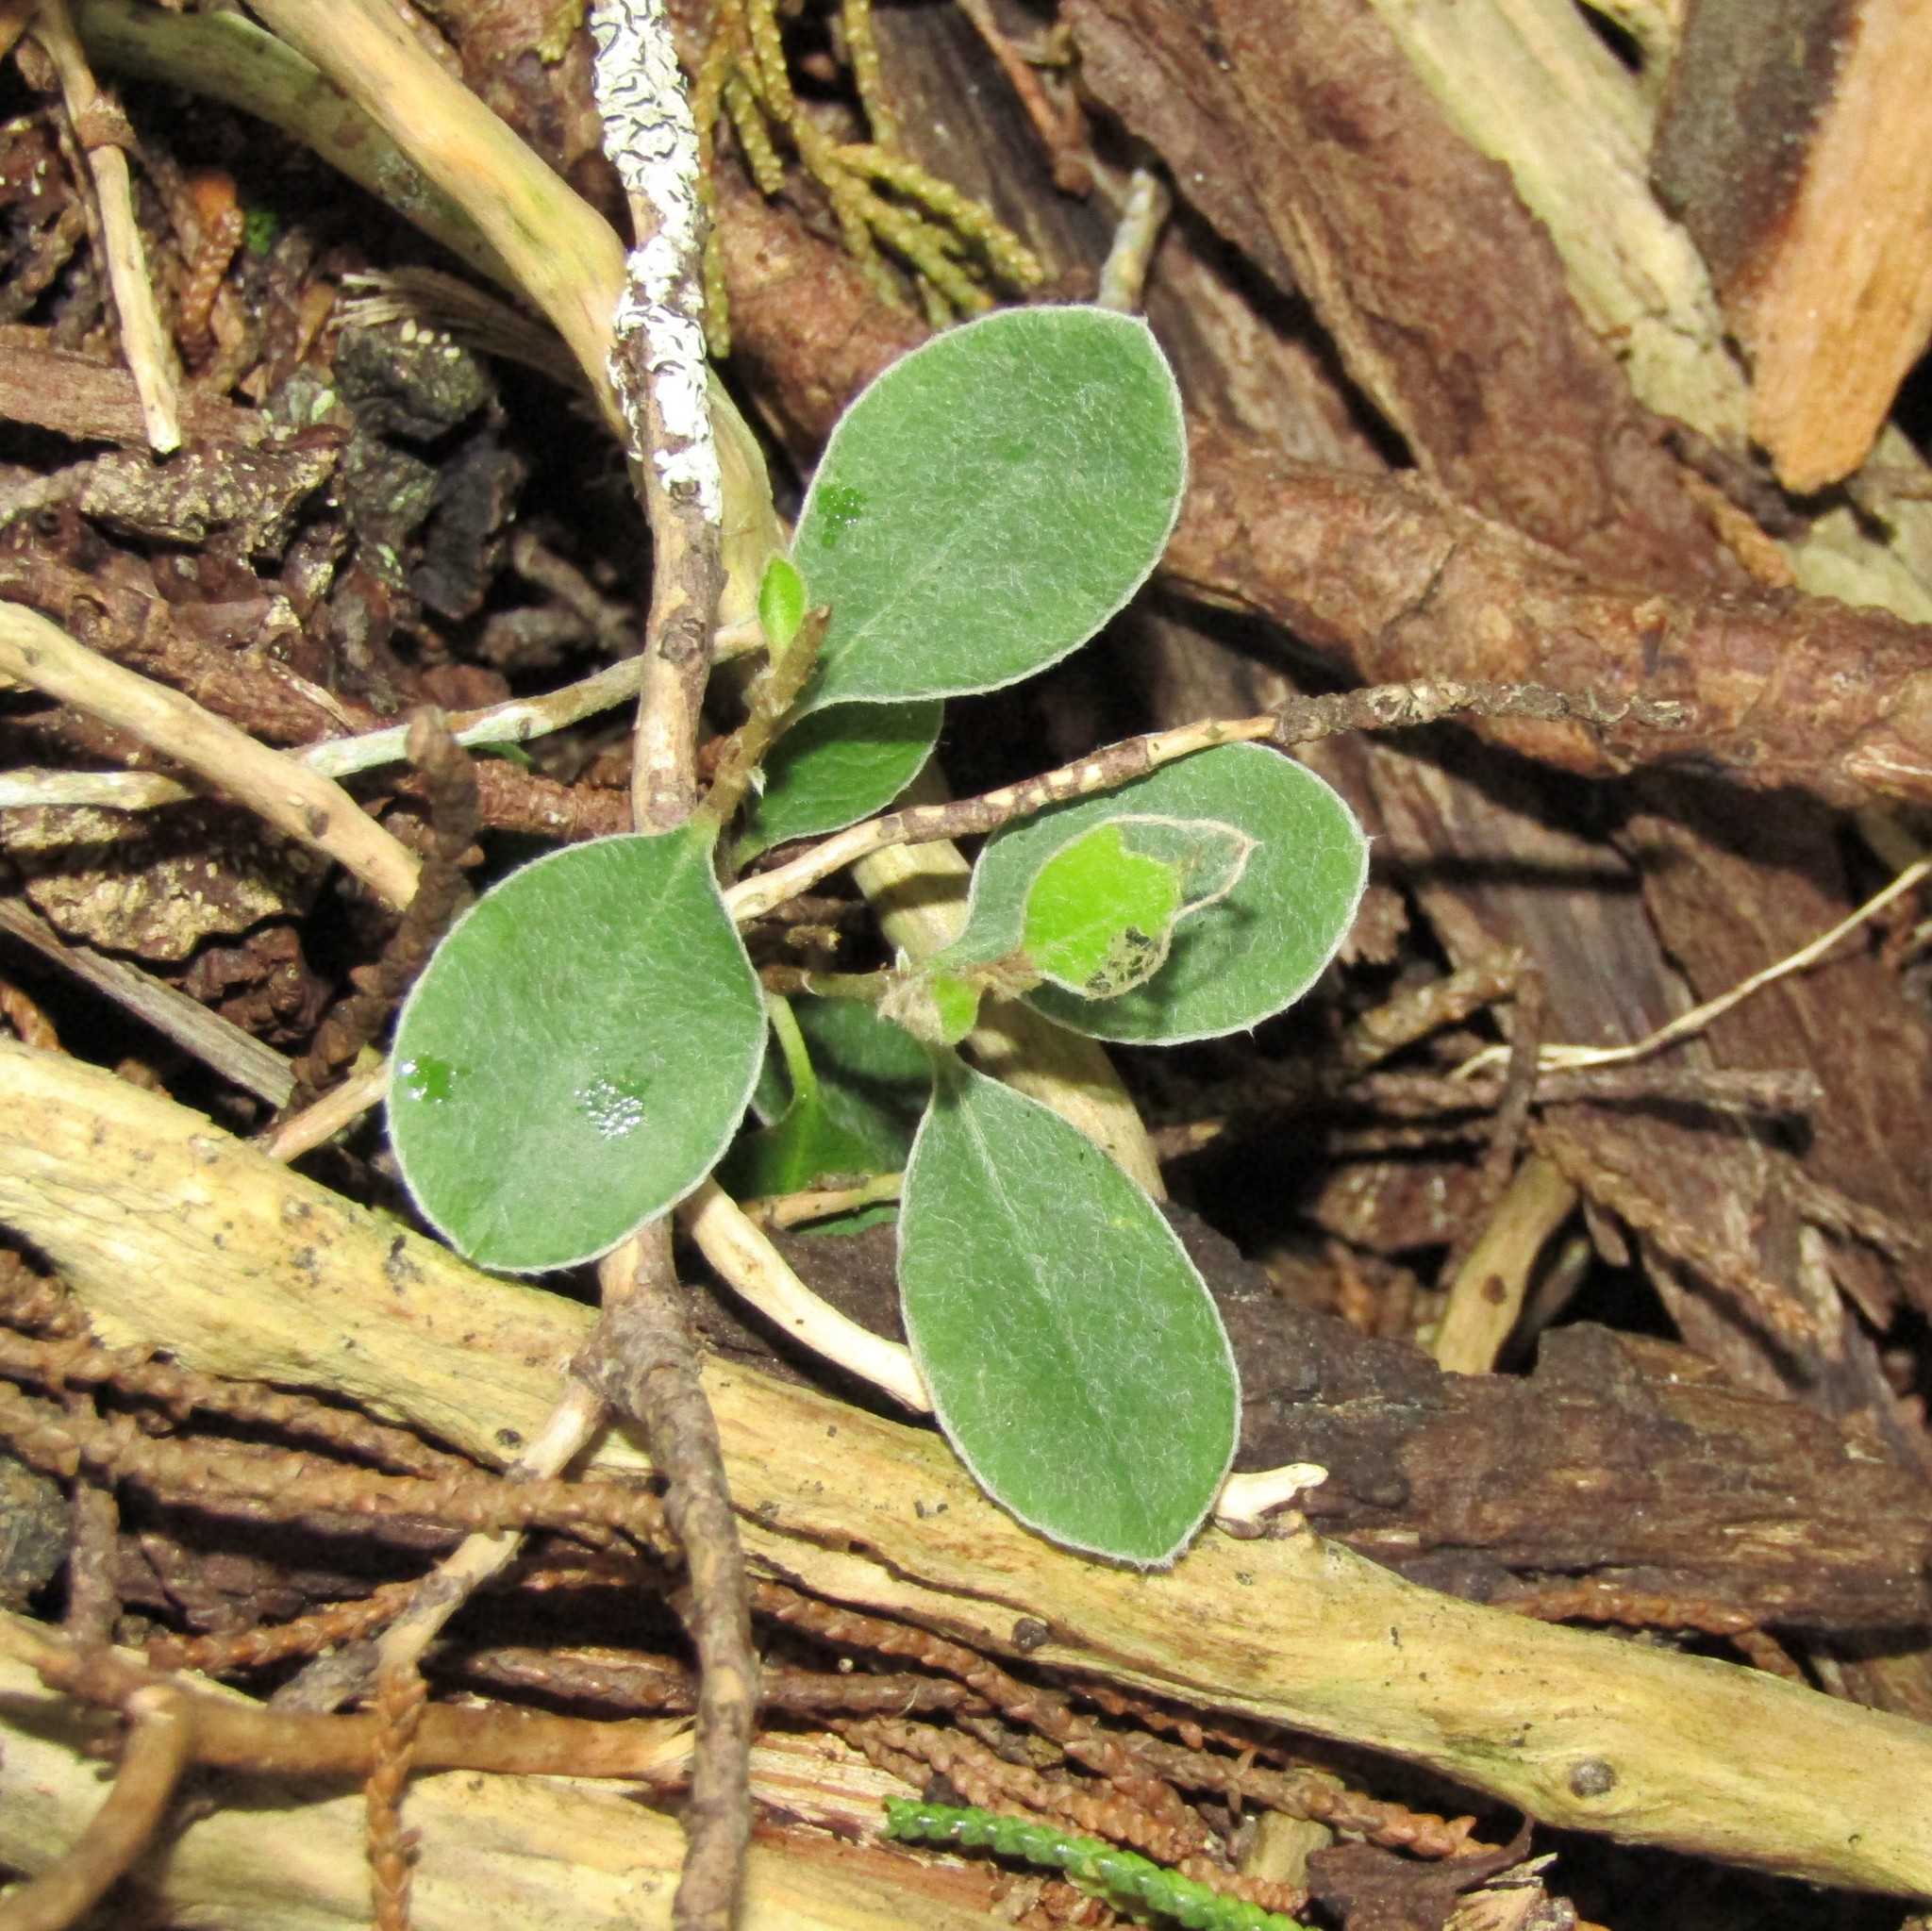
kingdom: Plantae
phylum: Tracheophyta
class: Magnoliopsida
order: Apiales
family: Pittosporaceae
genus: Pittosporum
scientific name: Pittosporum crassifolium
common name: Karo
